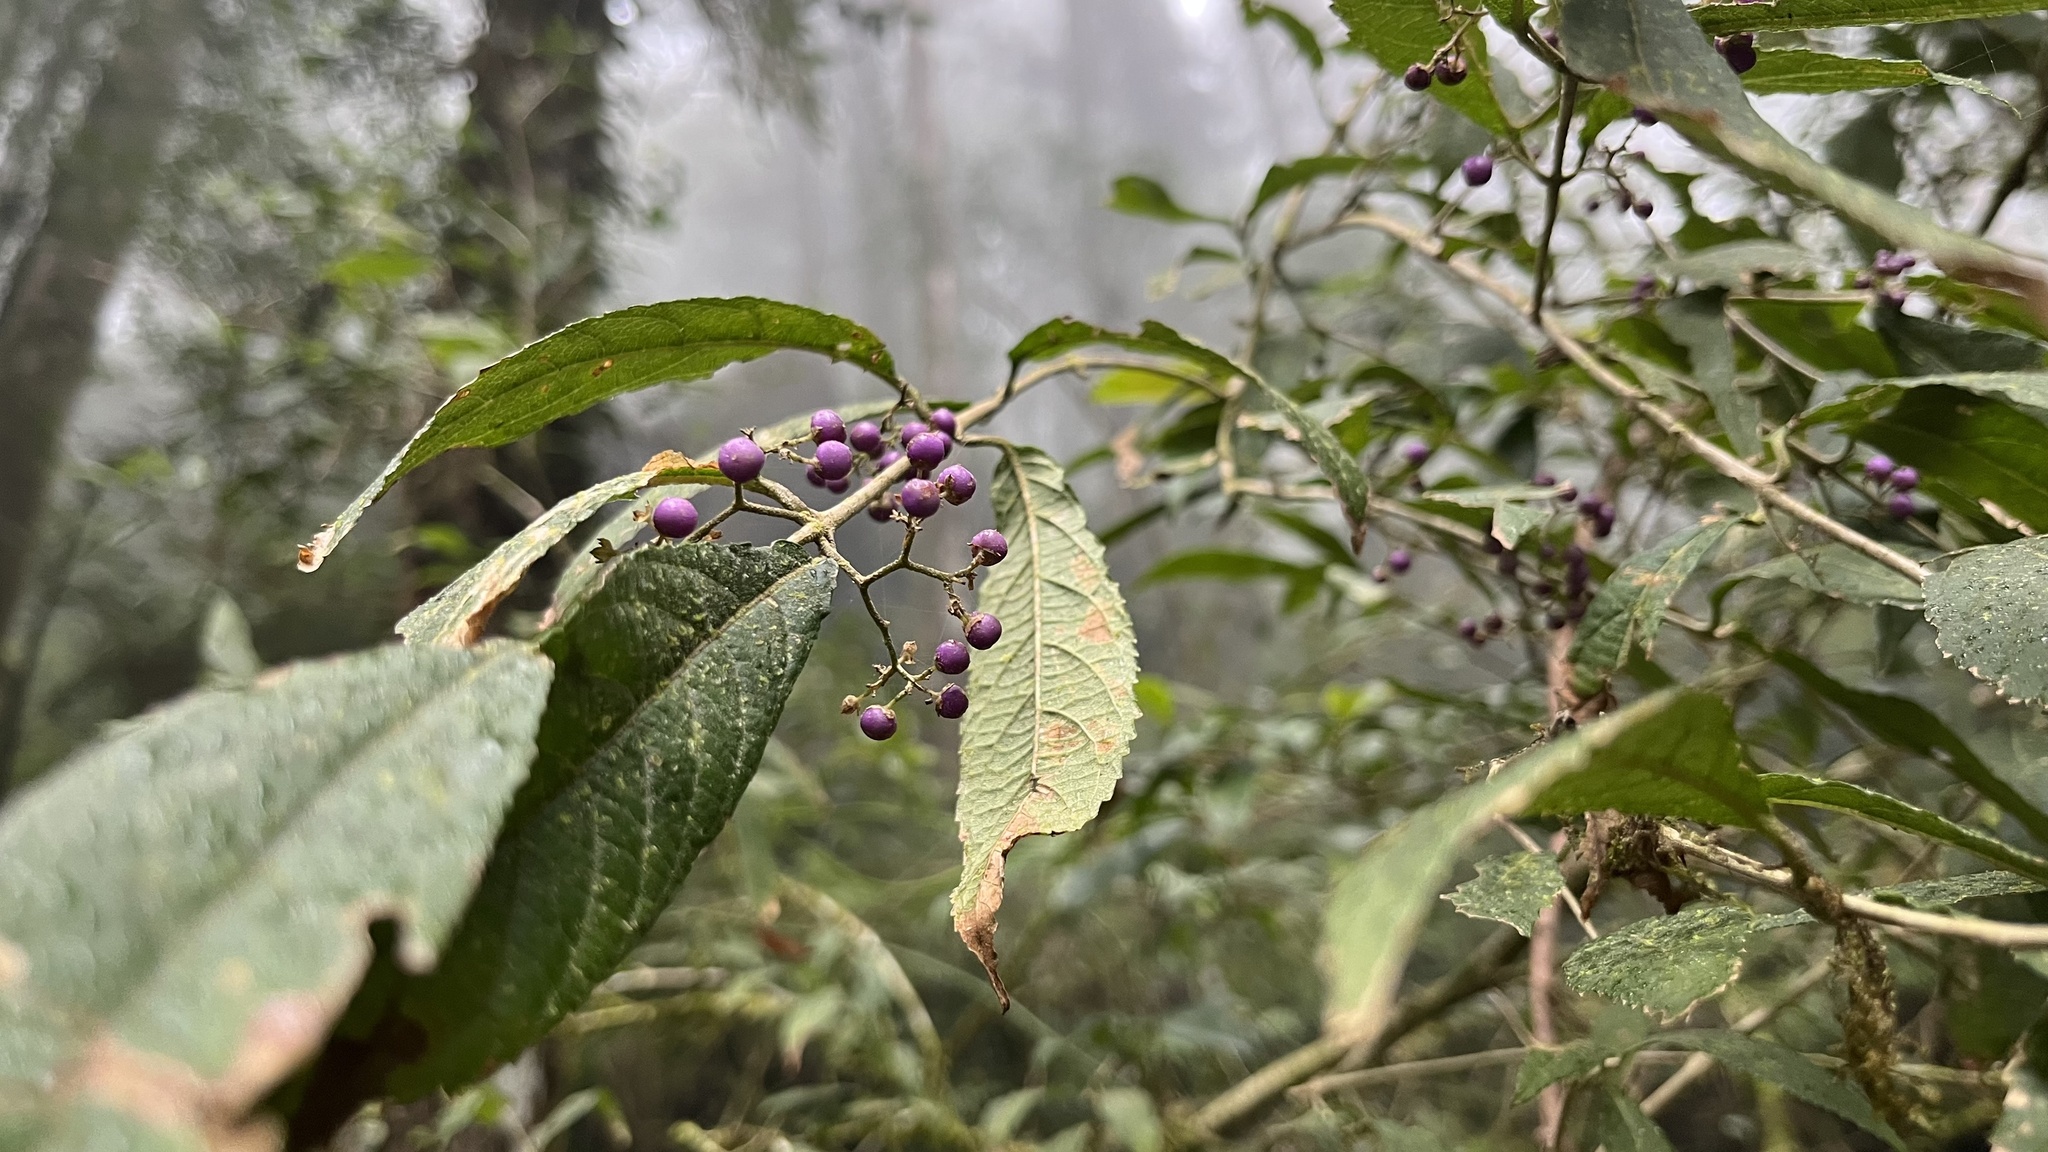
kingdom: Plantae
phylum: Tracheophyta
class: Magnoliopsida
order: Lamiales
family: Lamiaceae
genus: Callicarpa
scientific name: Callicarpa randaiensis
